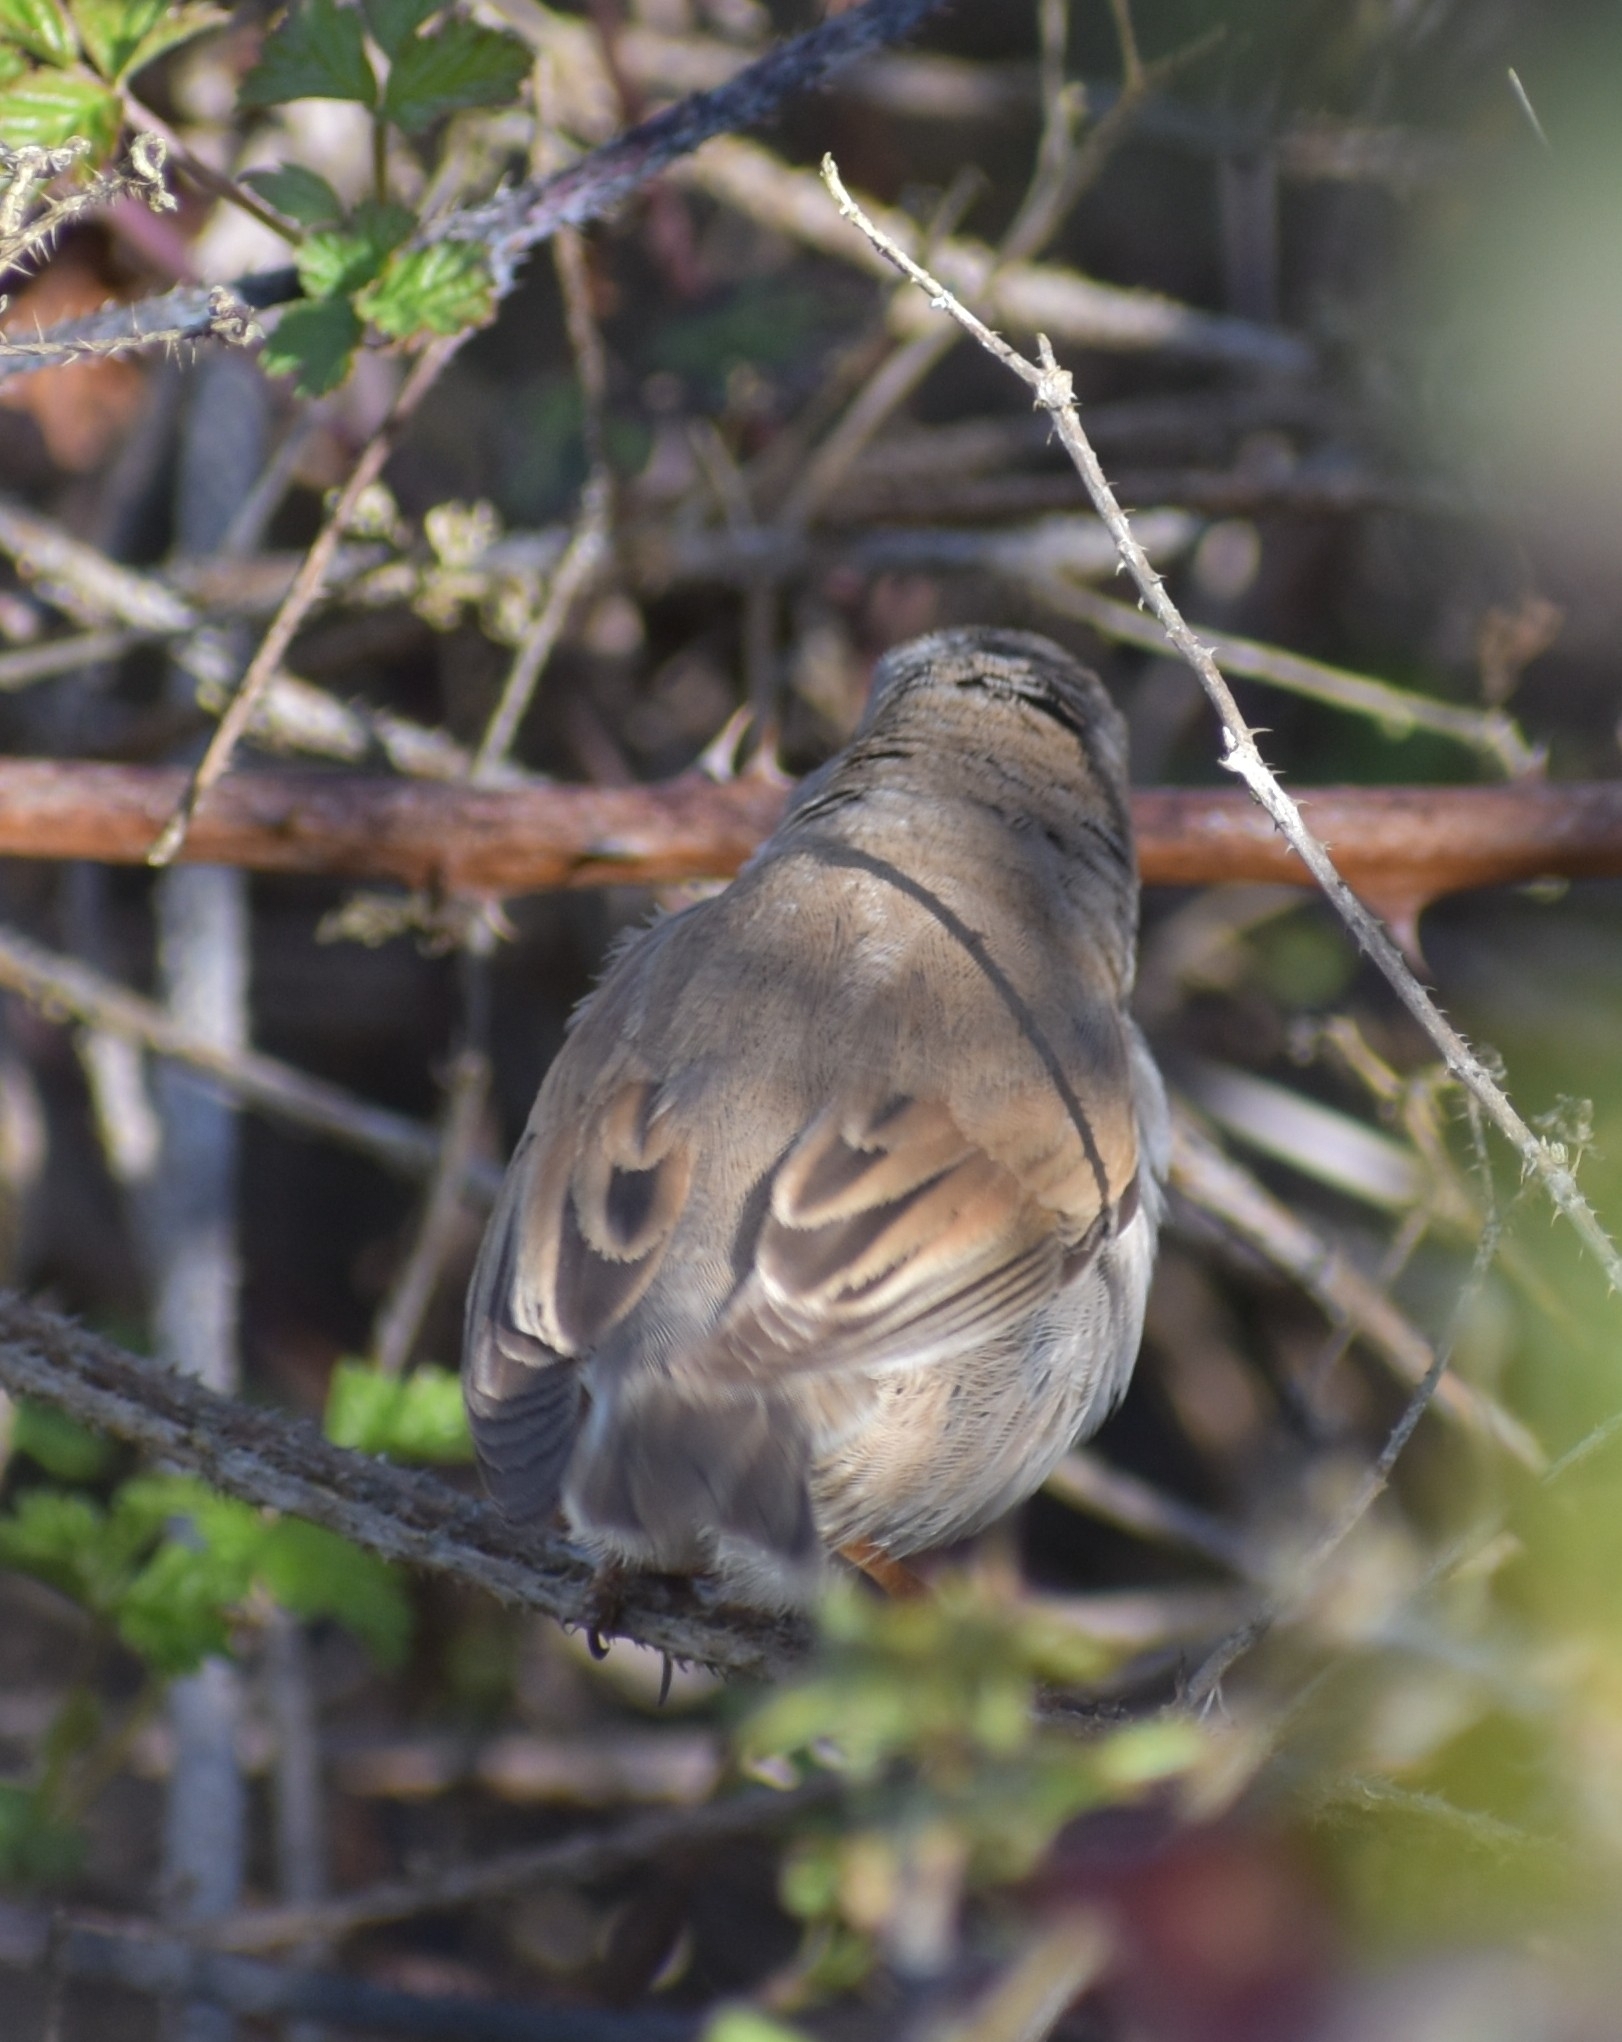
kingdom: Animalia
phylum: Chordata
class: Aves
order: Passeriformes
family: Sylviidae
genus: Sylvia
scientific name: Sylvia communis
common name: Common whitethroat
